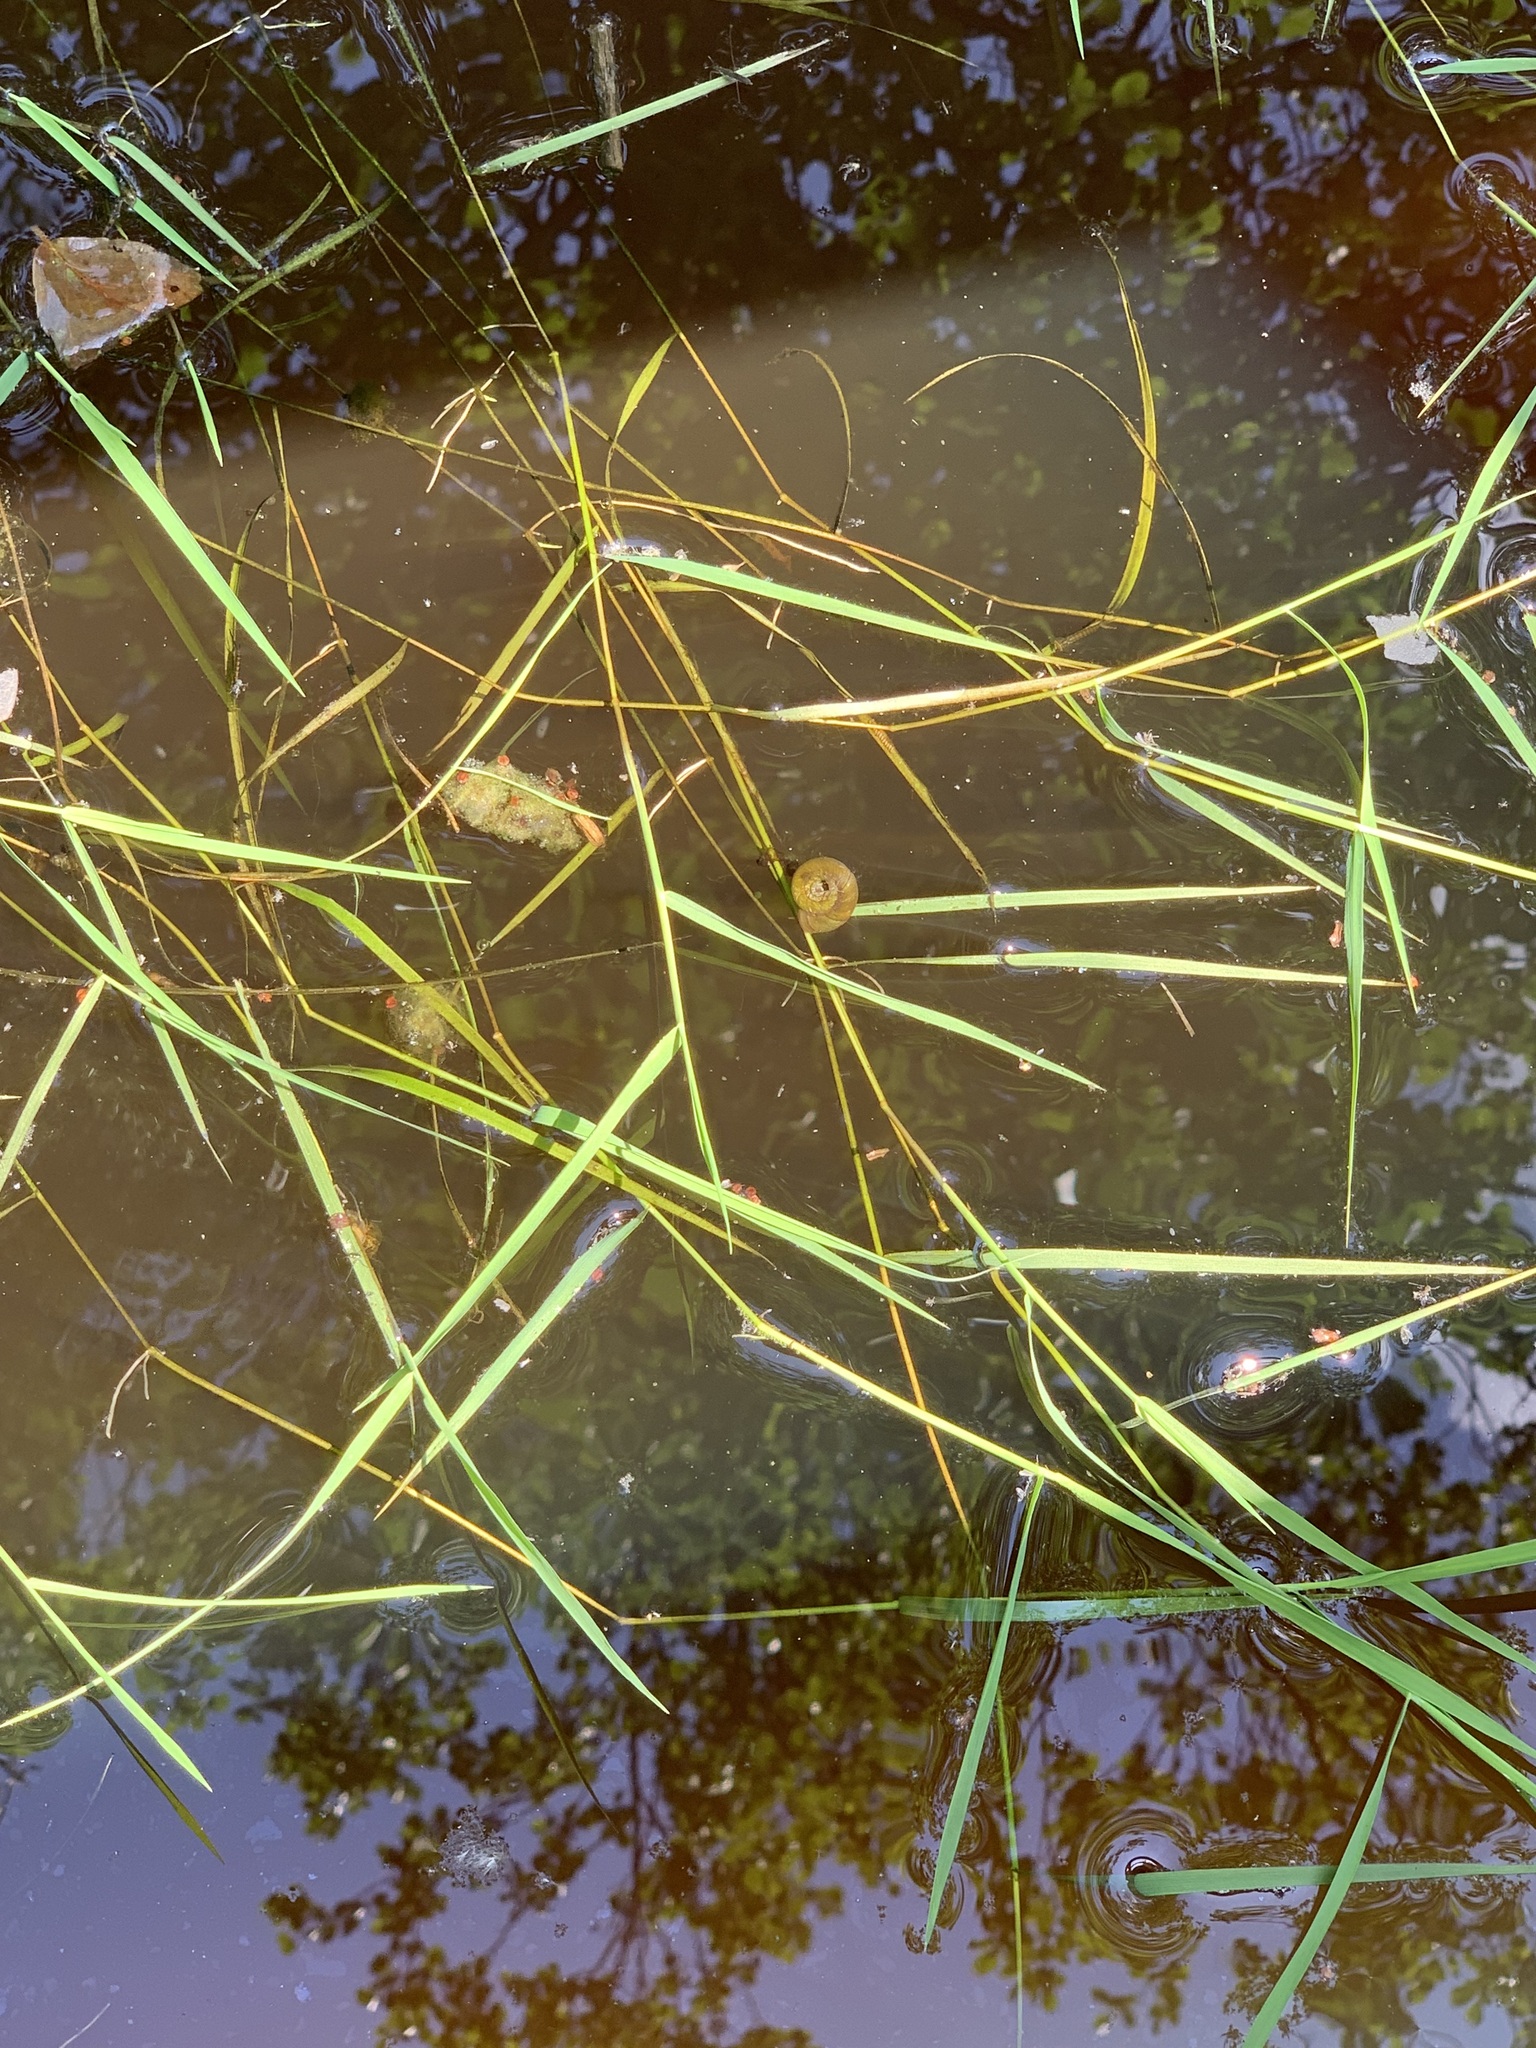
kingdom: Plantae
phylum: Tracheophyta
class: Liliopsida
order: Poales
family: Poaceae
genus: Agrostis
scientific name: Agrostis stolonifera
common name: Creeping bentgrass
